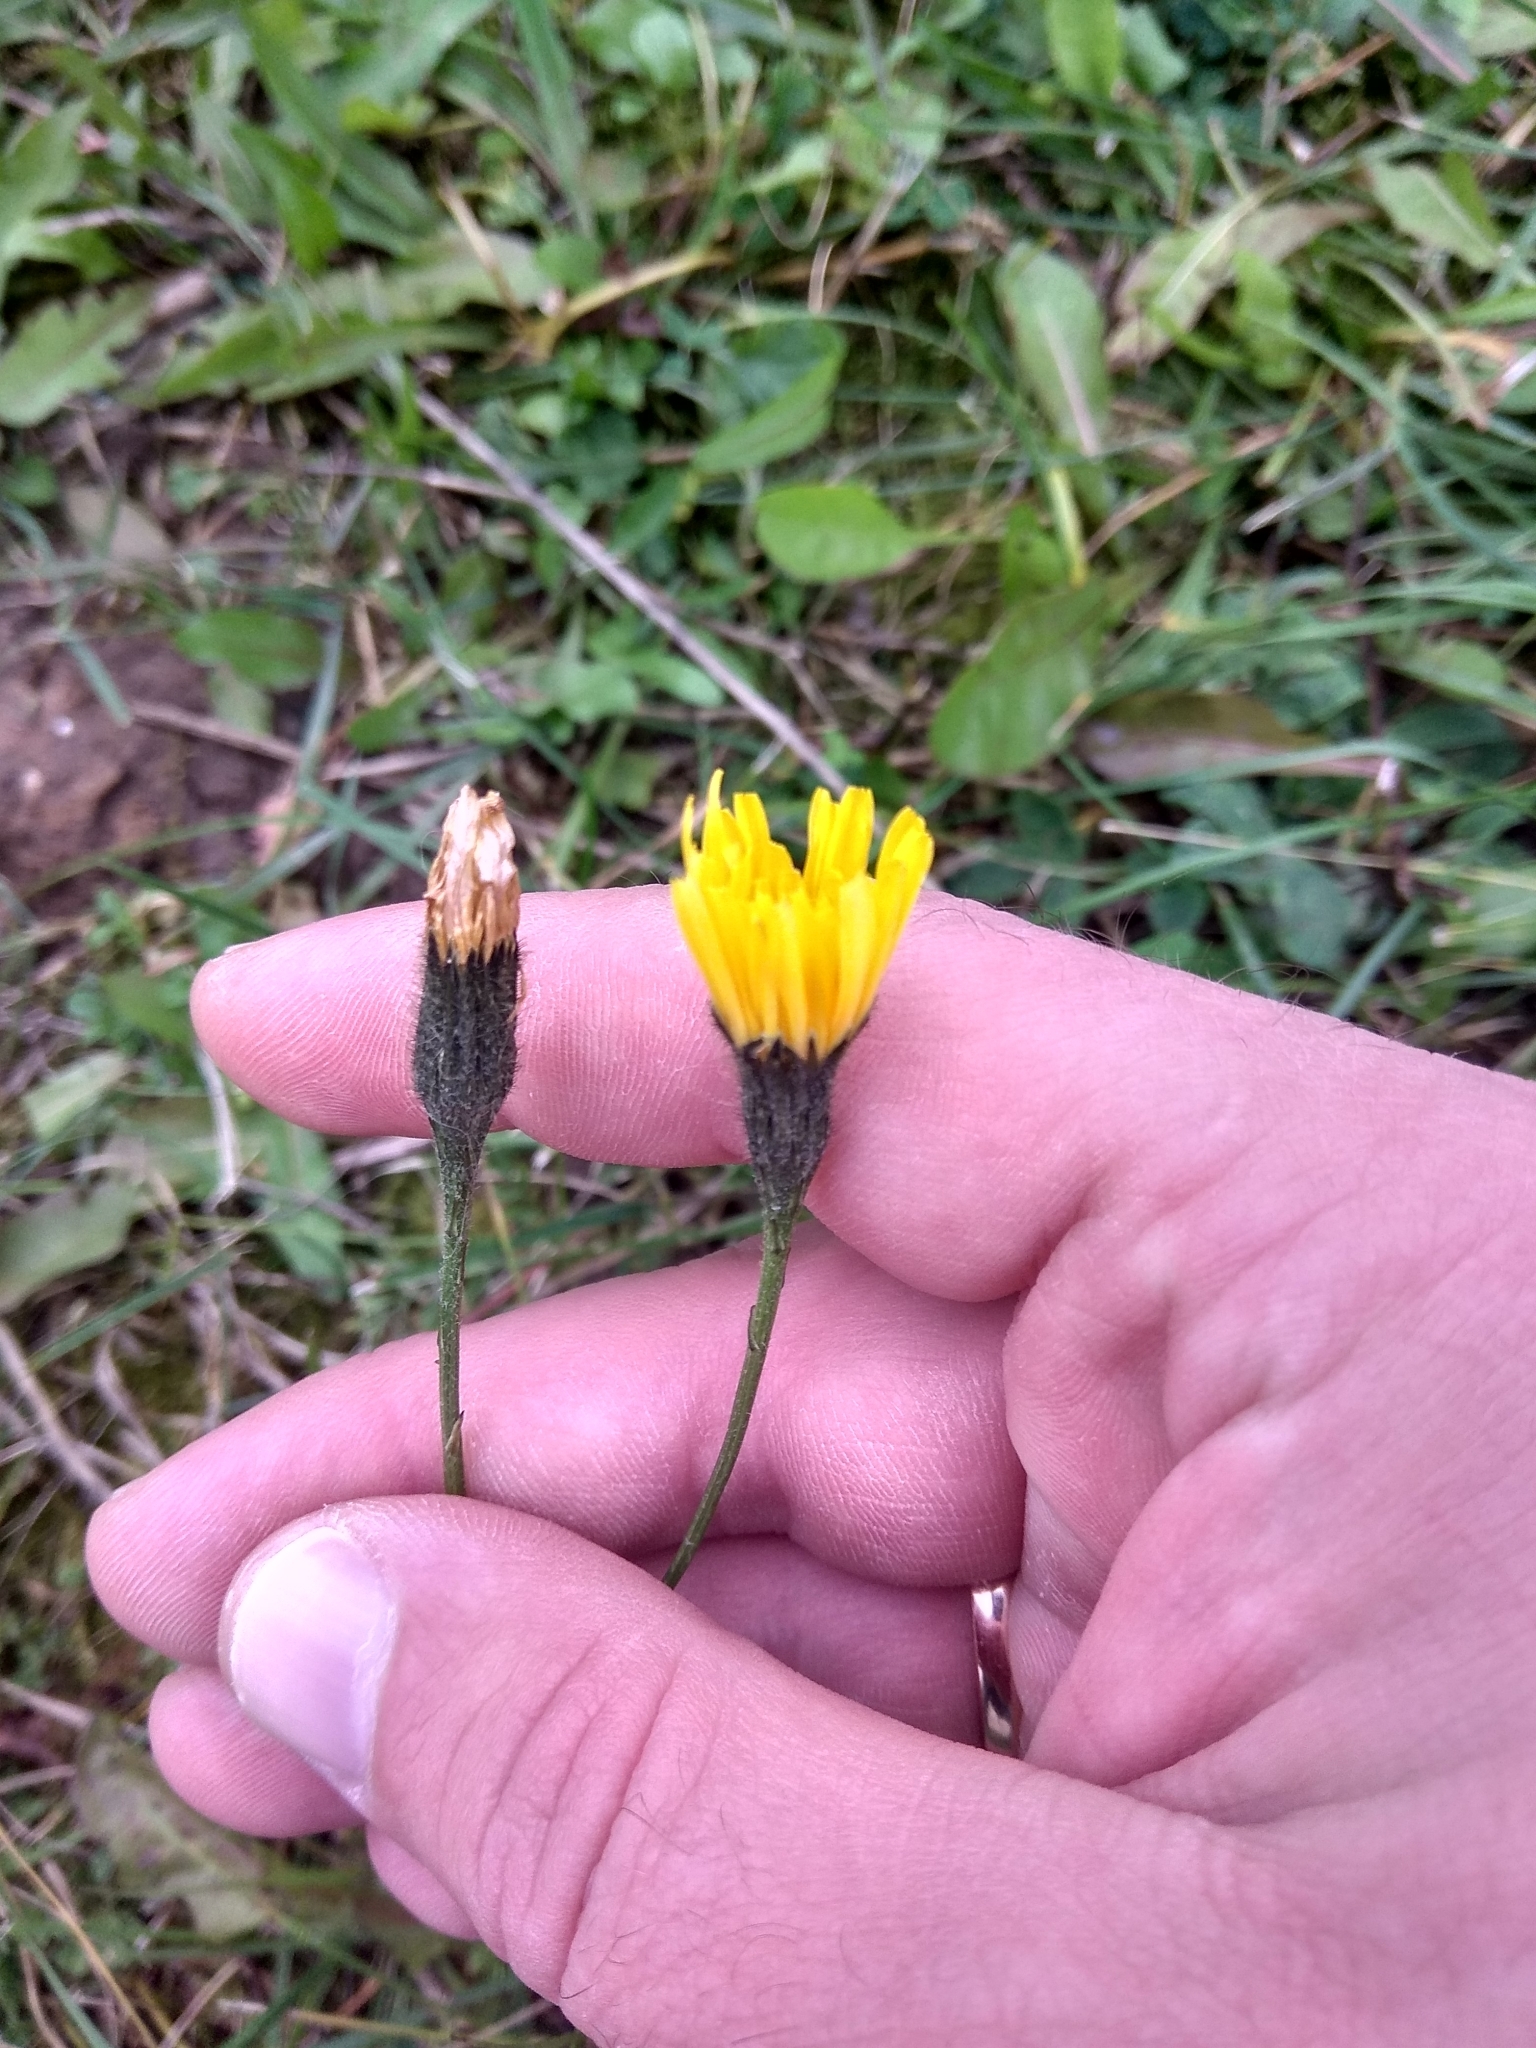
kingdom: Plantae
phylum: Tracheophyta
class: Magnoliopsida
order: Asterales
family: Asteraceae
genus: Scorzoneroides
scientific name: Scorzoneroides autumnalis
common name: Autumn hawkbit
